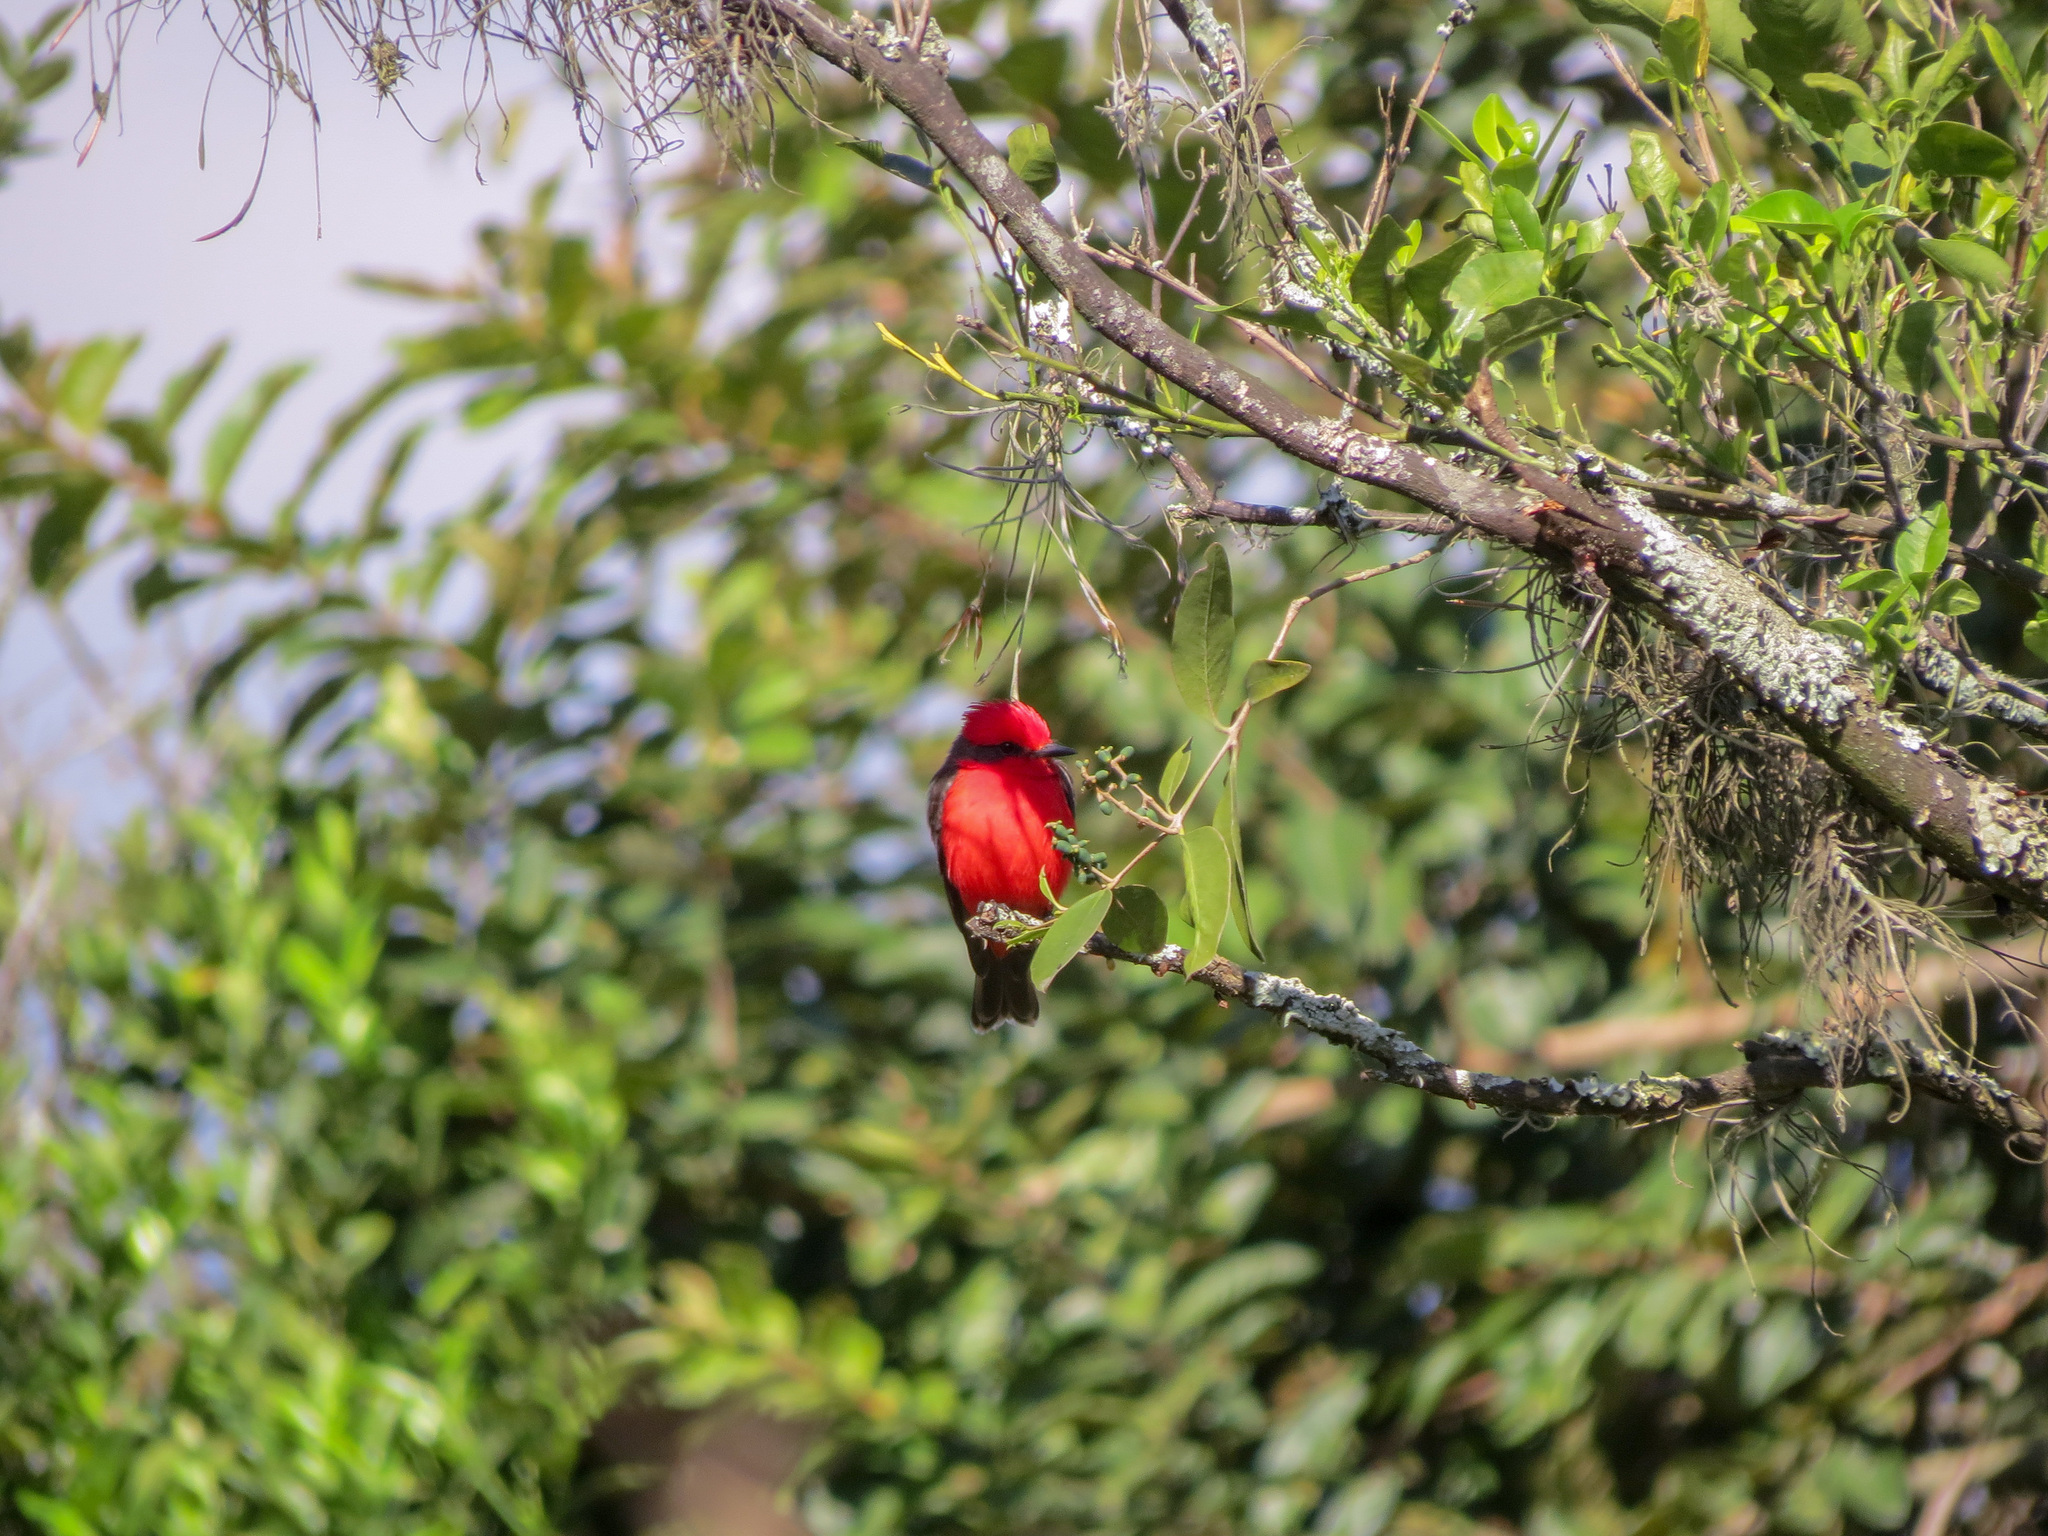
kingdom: Animalia
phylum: Chordata
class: Aves
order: Passeriformes
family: Tyrannidae
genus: Pyrocephalus
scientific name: Pyrocephalus rubinus
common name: Vermilion flycatcher
